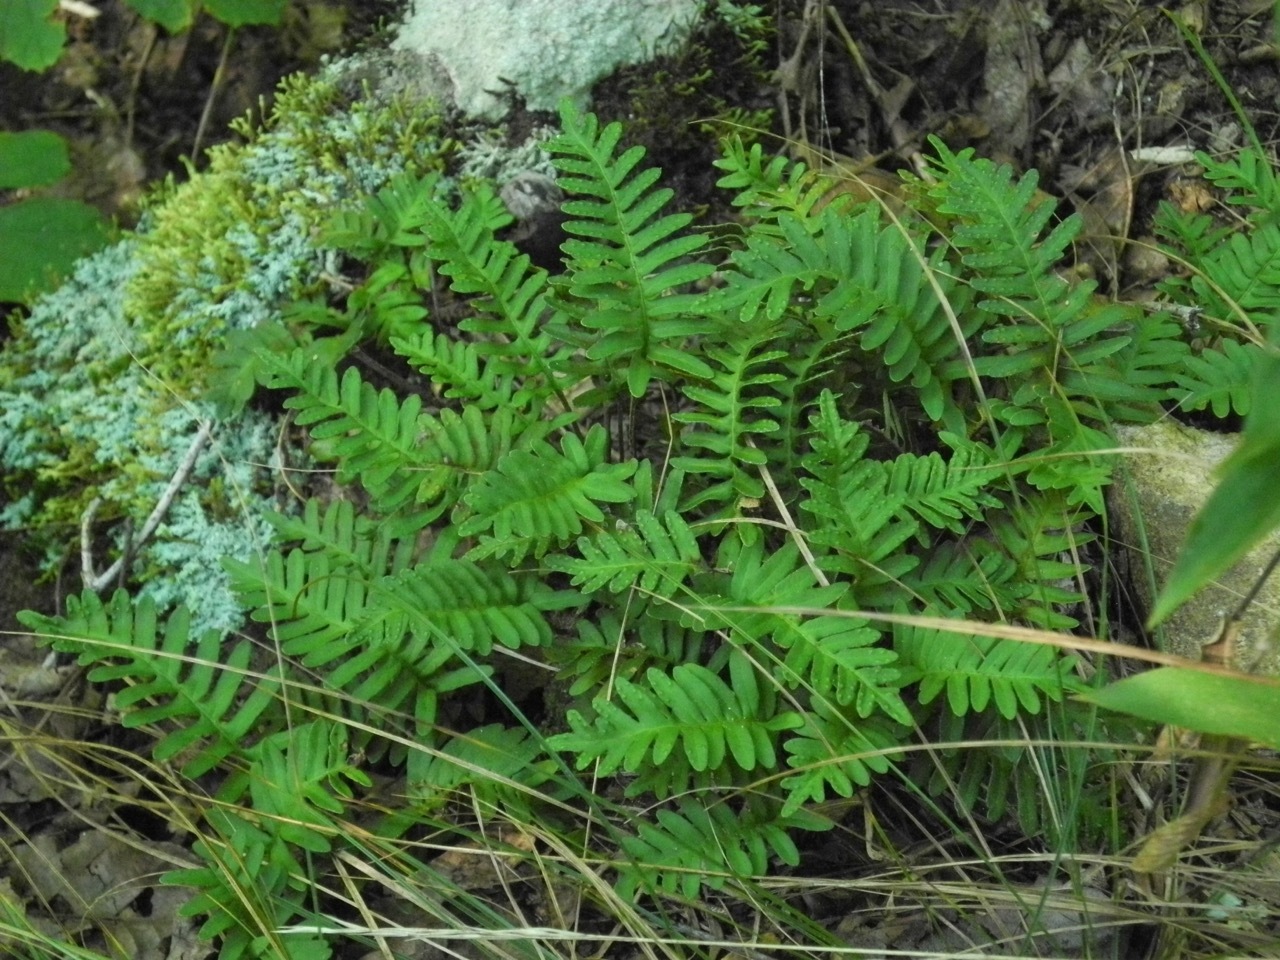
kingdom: Plantae
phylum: Tracheophyta
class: Polypodiopsida
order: Polypodiales
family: Polypodiaceae
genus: Pleopeltis
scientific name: Pleopeltis michauxiana
